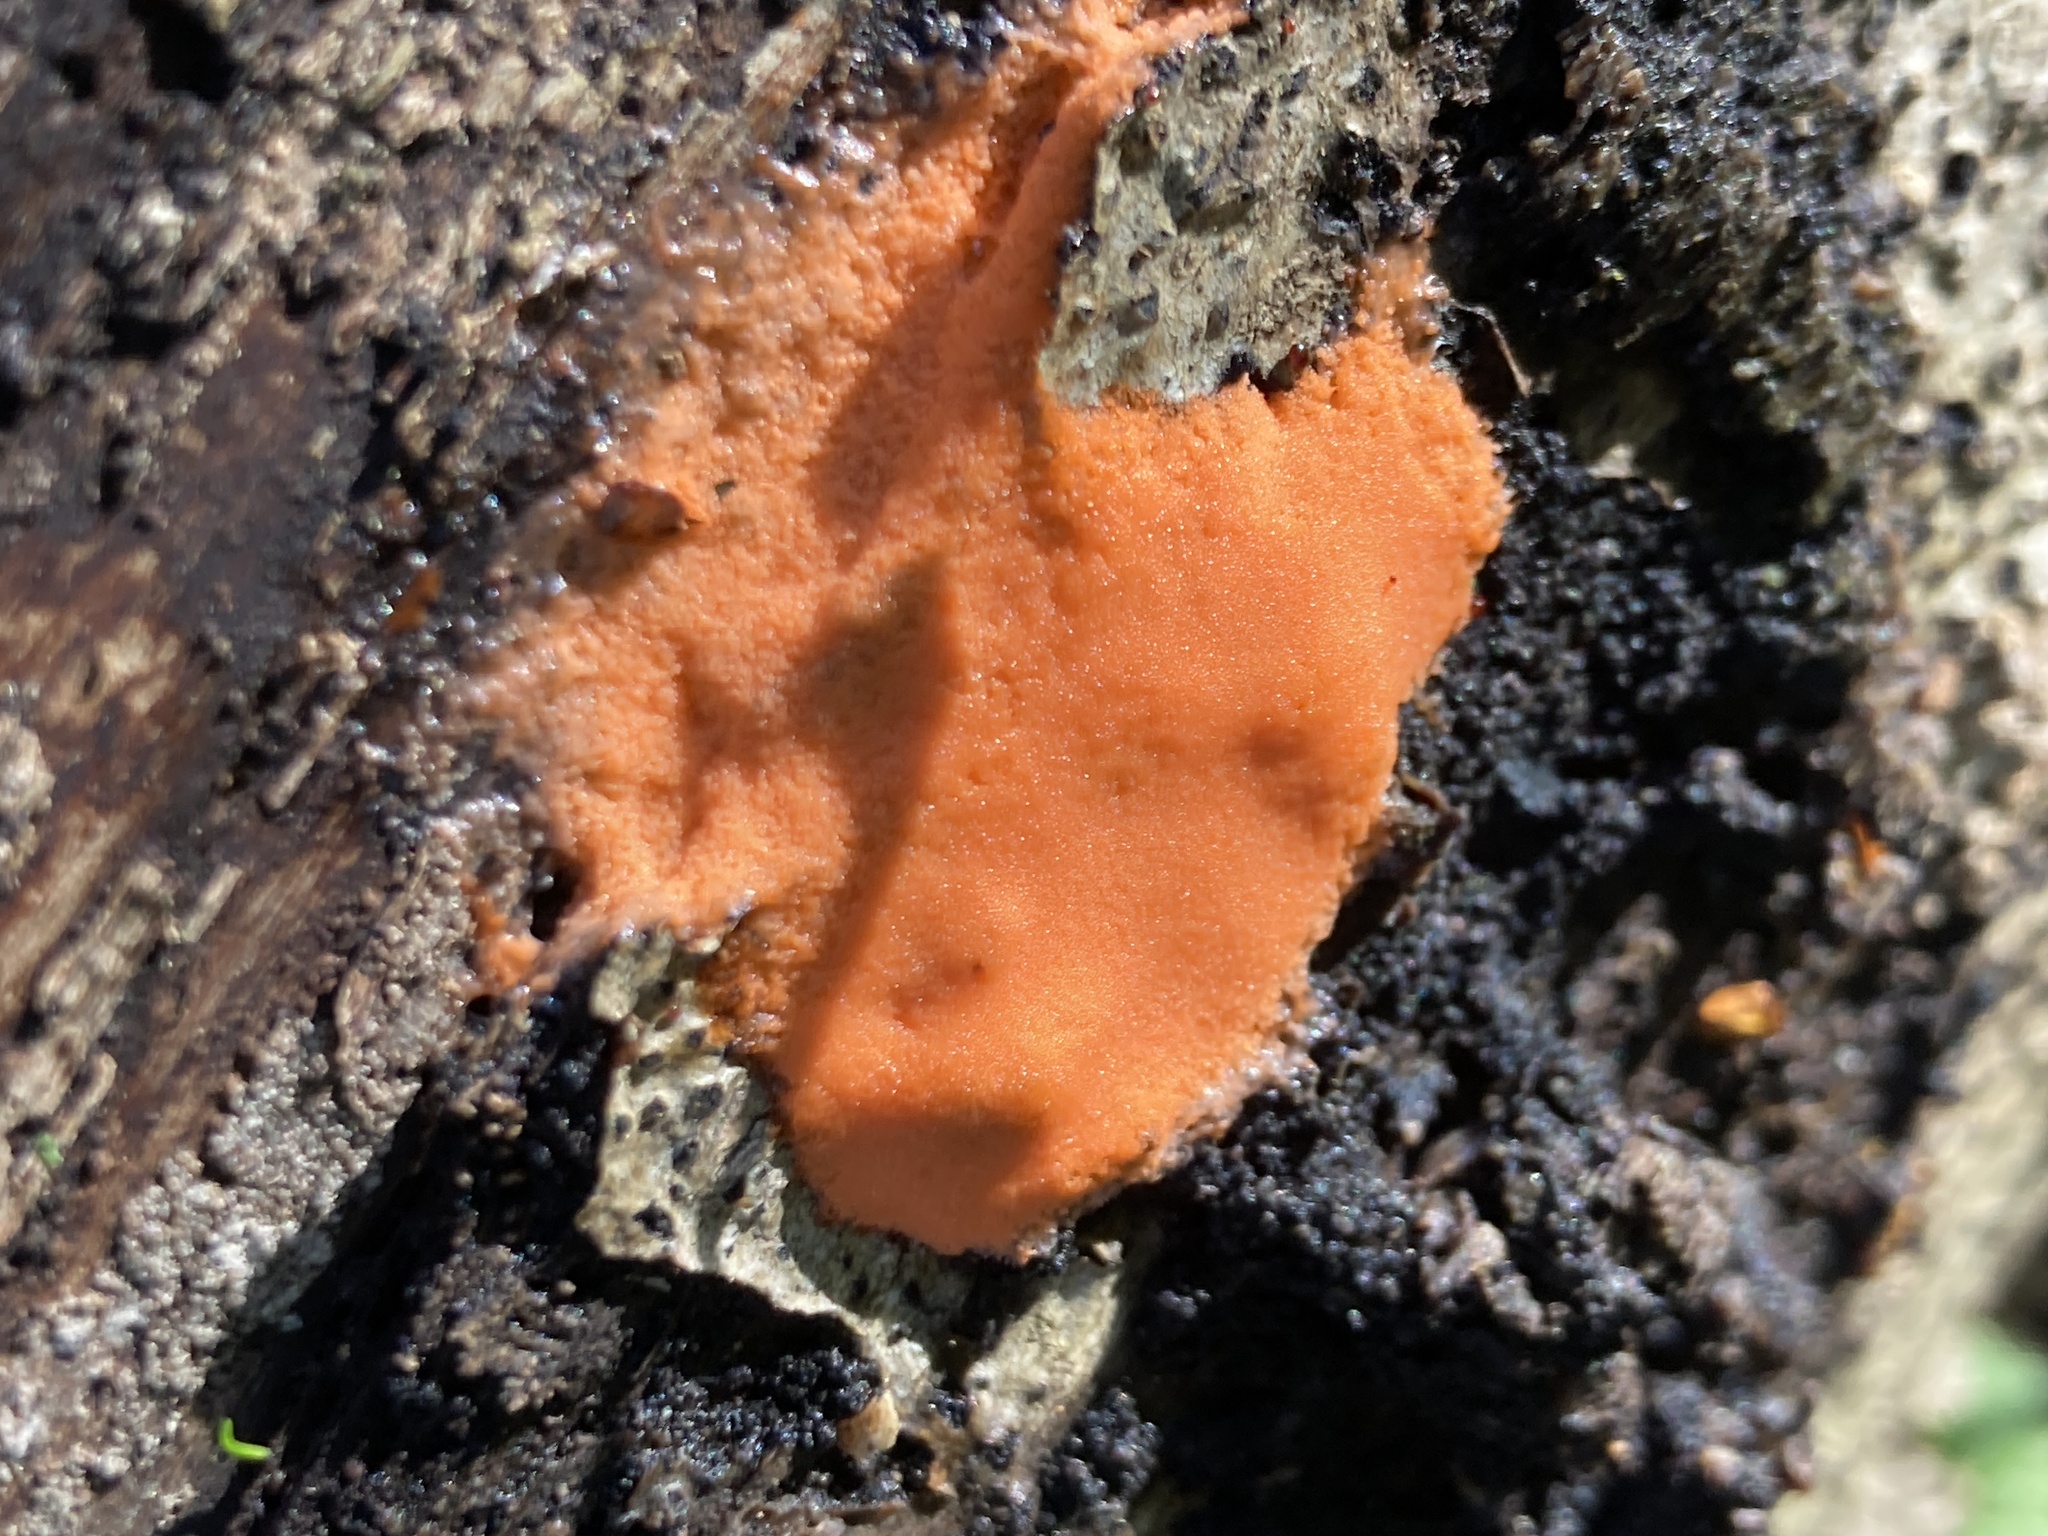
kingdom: Protozoa
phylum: Mycetozoa
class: Myxomycetes
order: Trichiales
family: Dictydiaethaliaceae
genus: Dictydiaethalium
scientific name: Dictydiaethalium plumbeum
